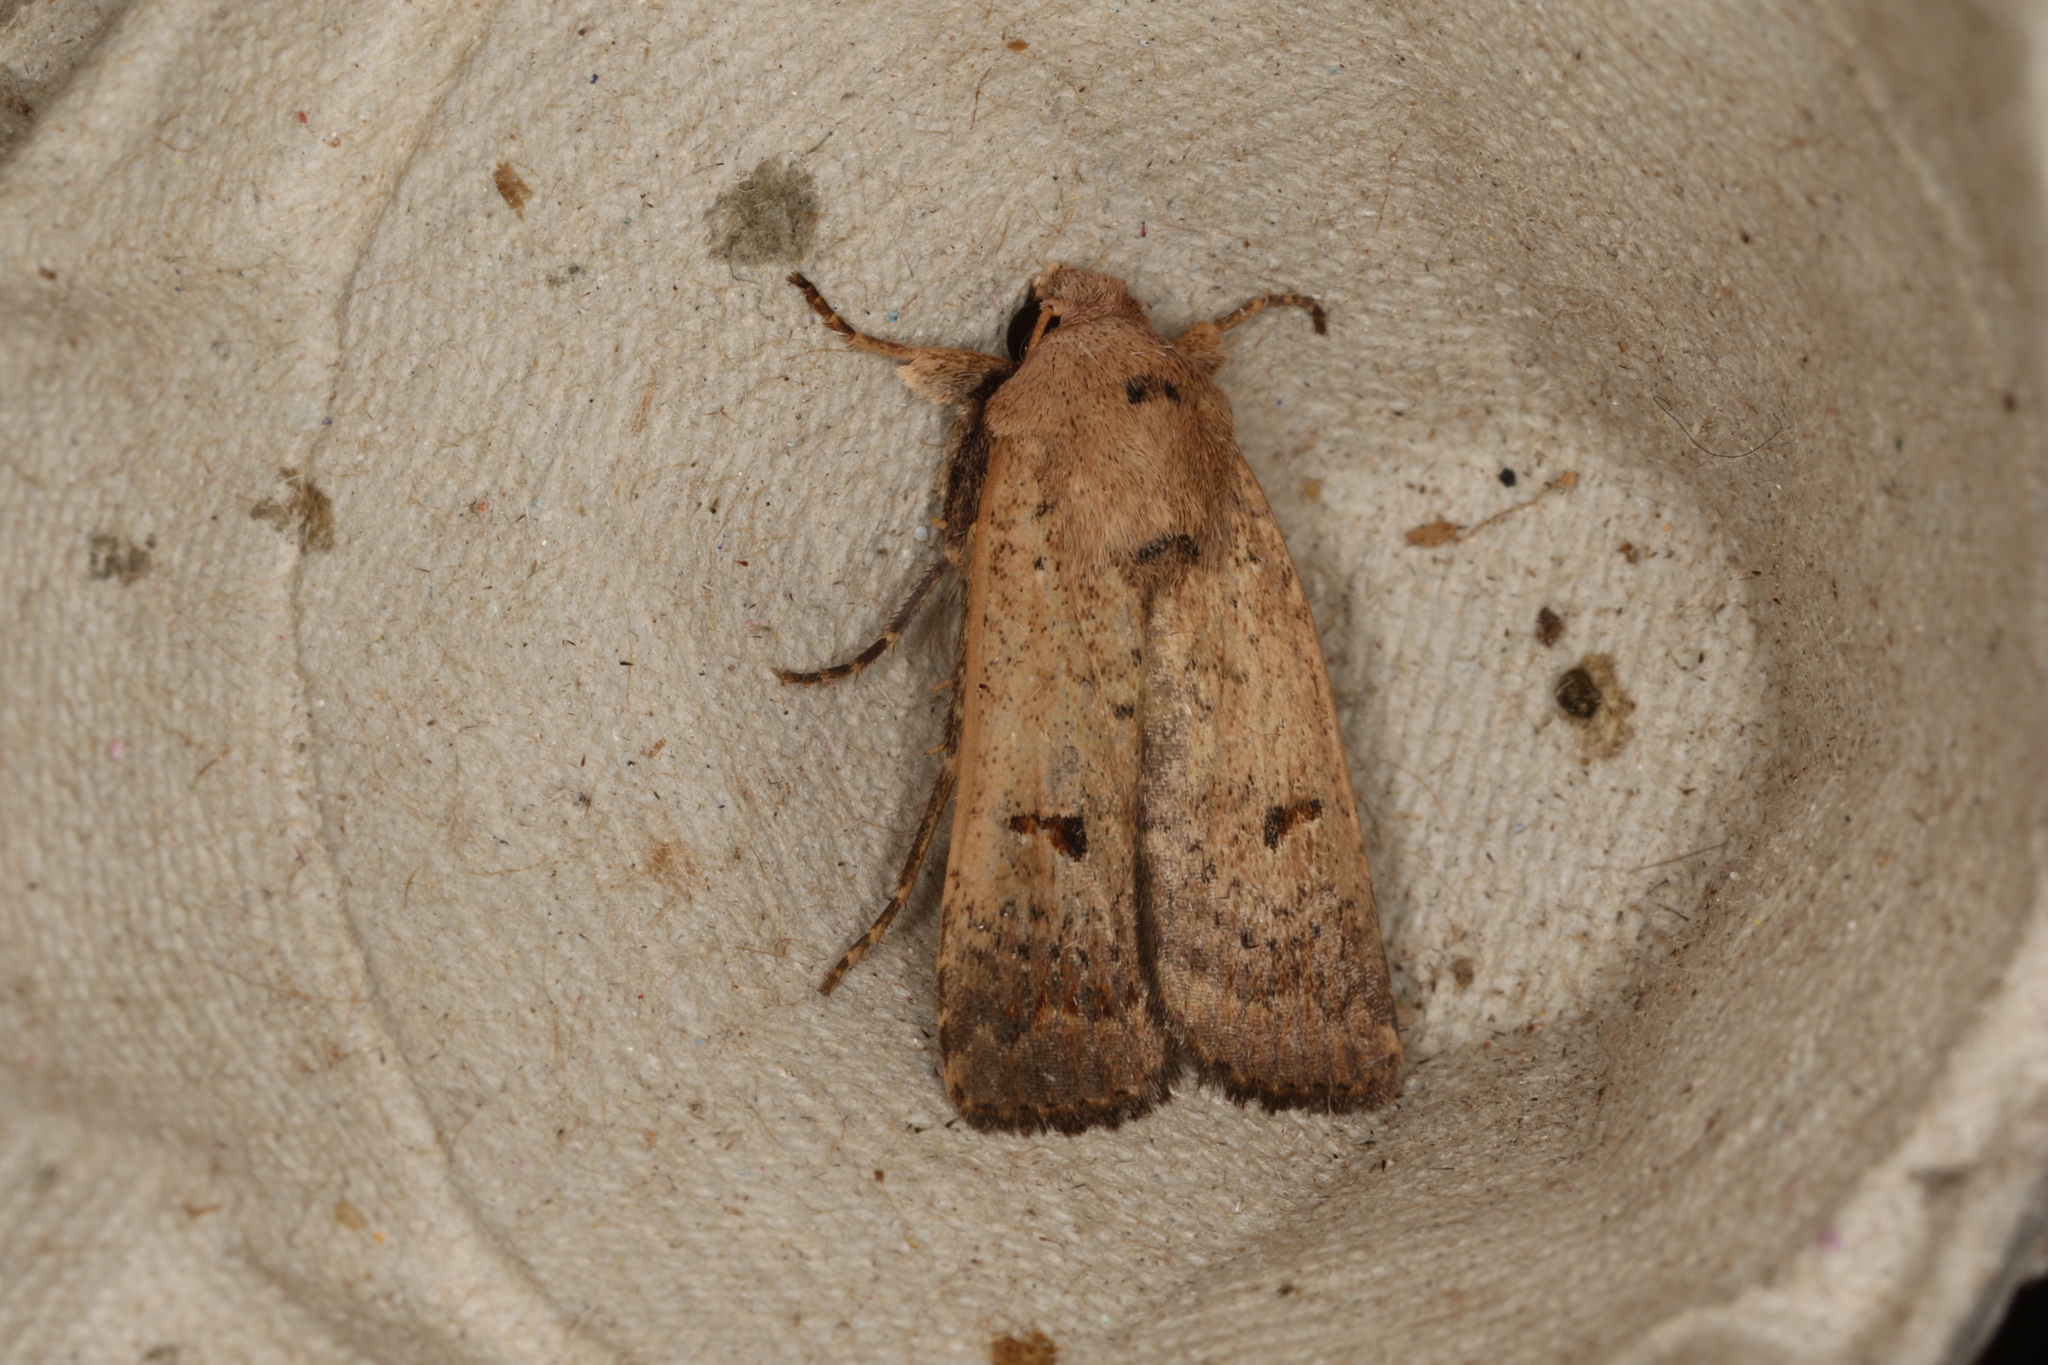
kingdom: Animalia
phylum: Arthropoda
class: Insecta
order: Lepidoptera
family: Noctuidae
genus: Proteuxoa
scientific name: Proteuxoa hypochalchis
